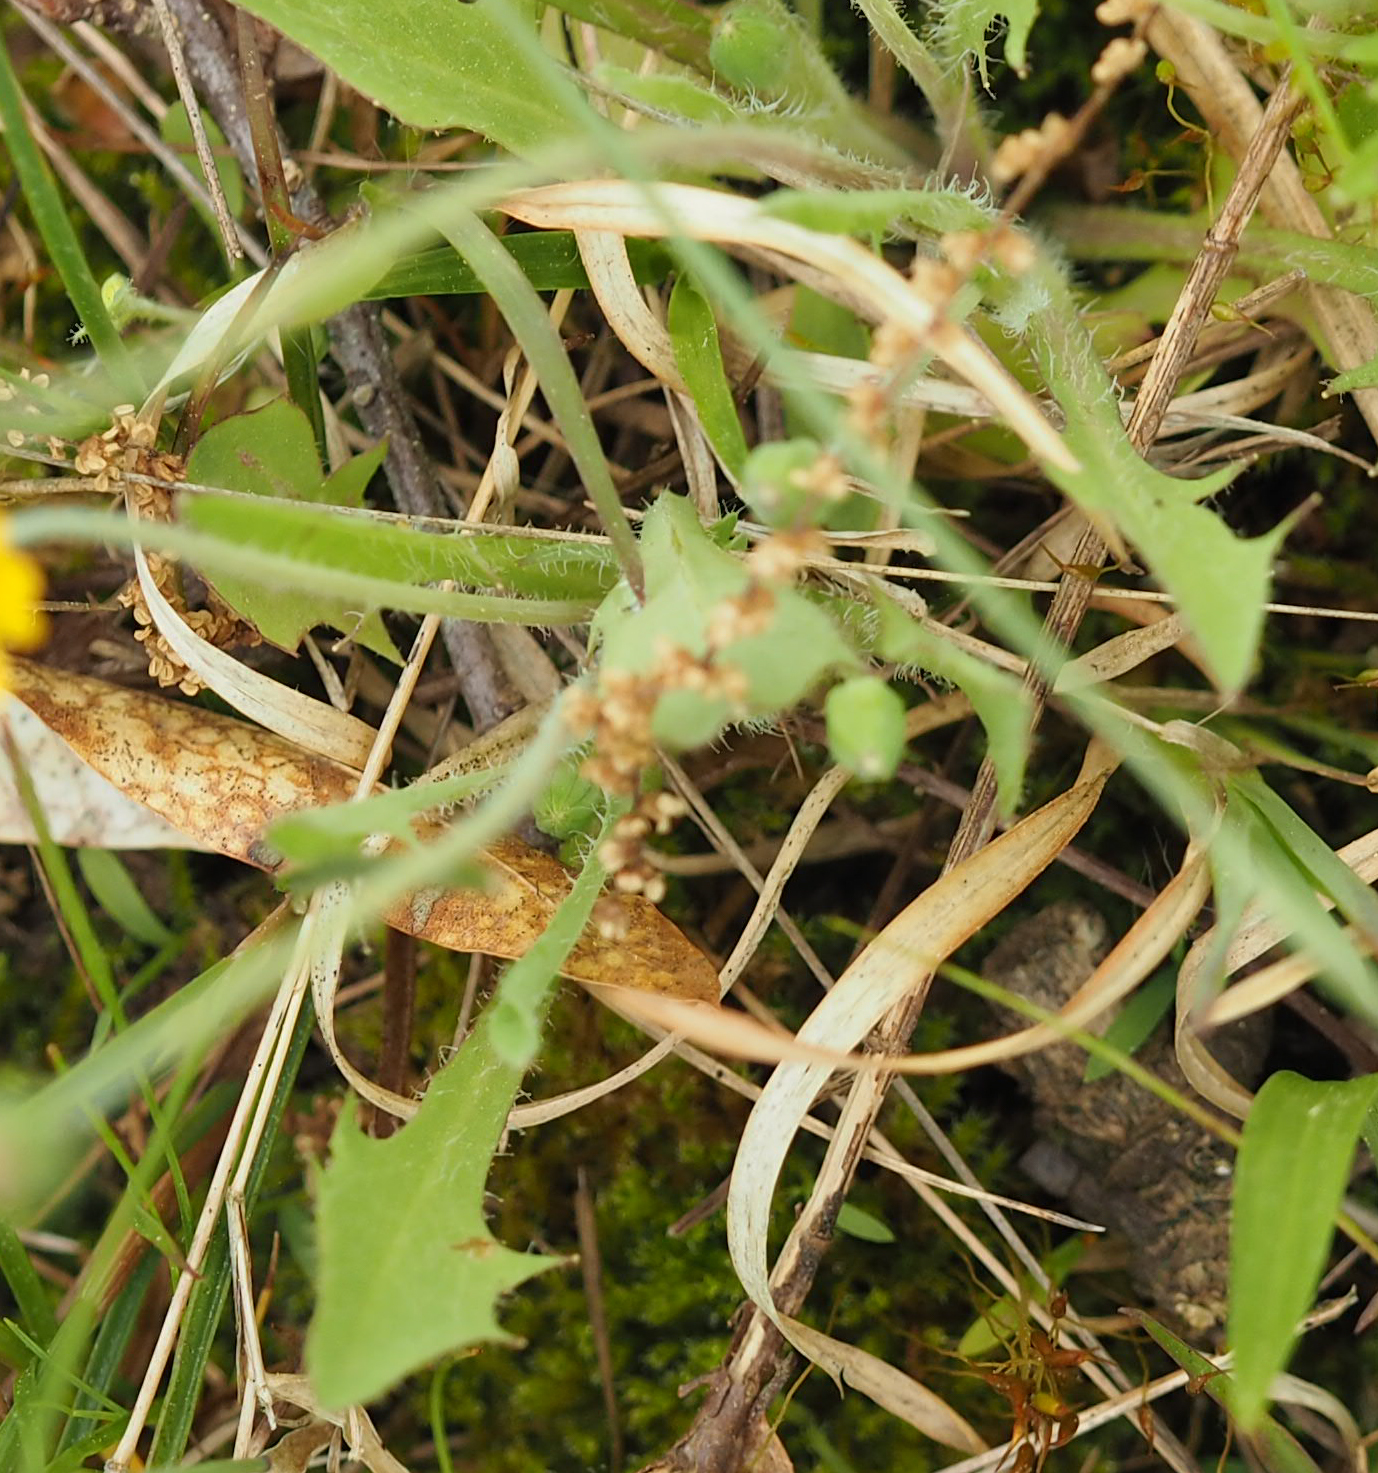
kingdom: Plantae
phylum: Tracheophyta
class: Magnoliopsida
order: Asterales
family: Asteraceae
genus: Krigia
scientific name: Krigia virginica
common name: Virginia dwarf-dandelion
